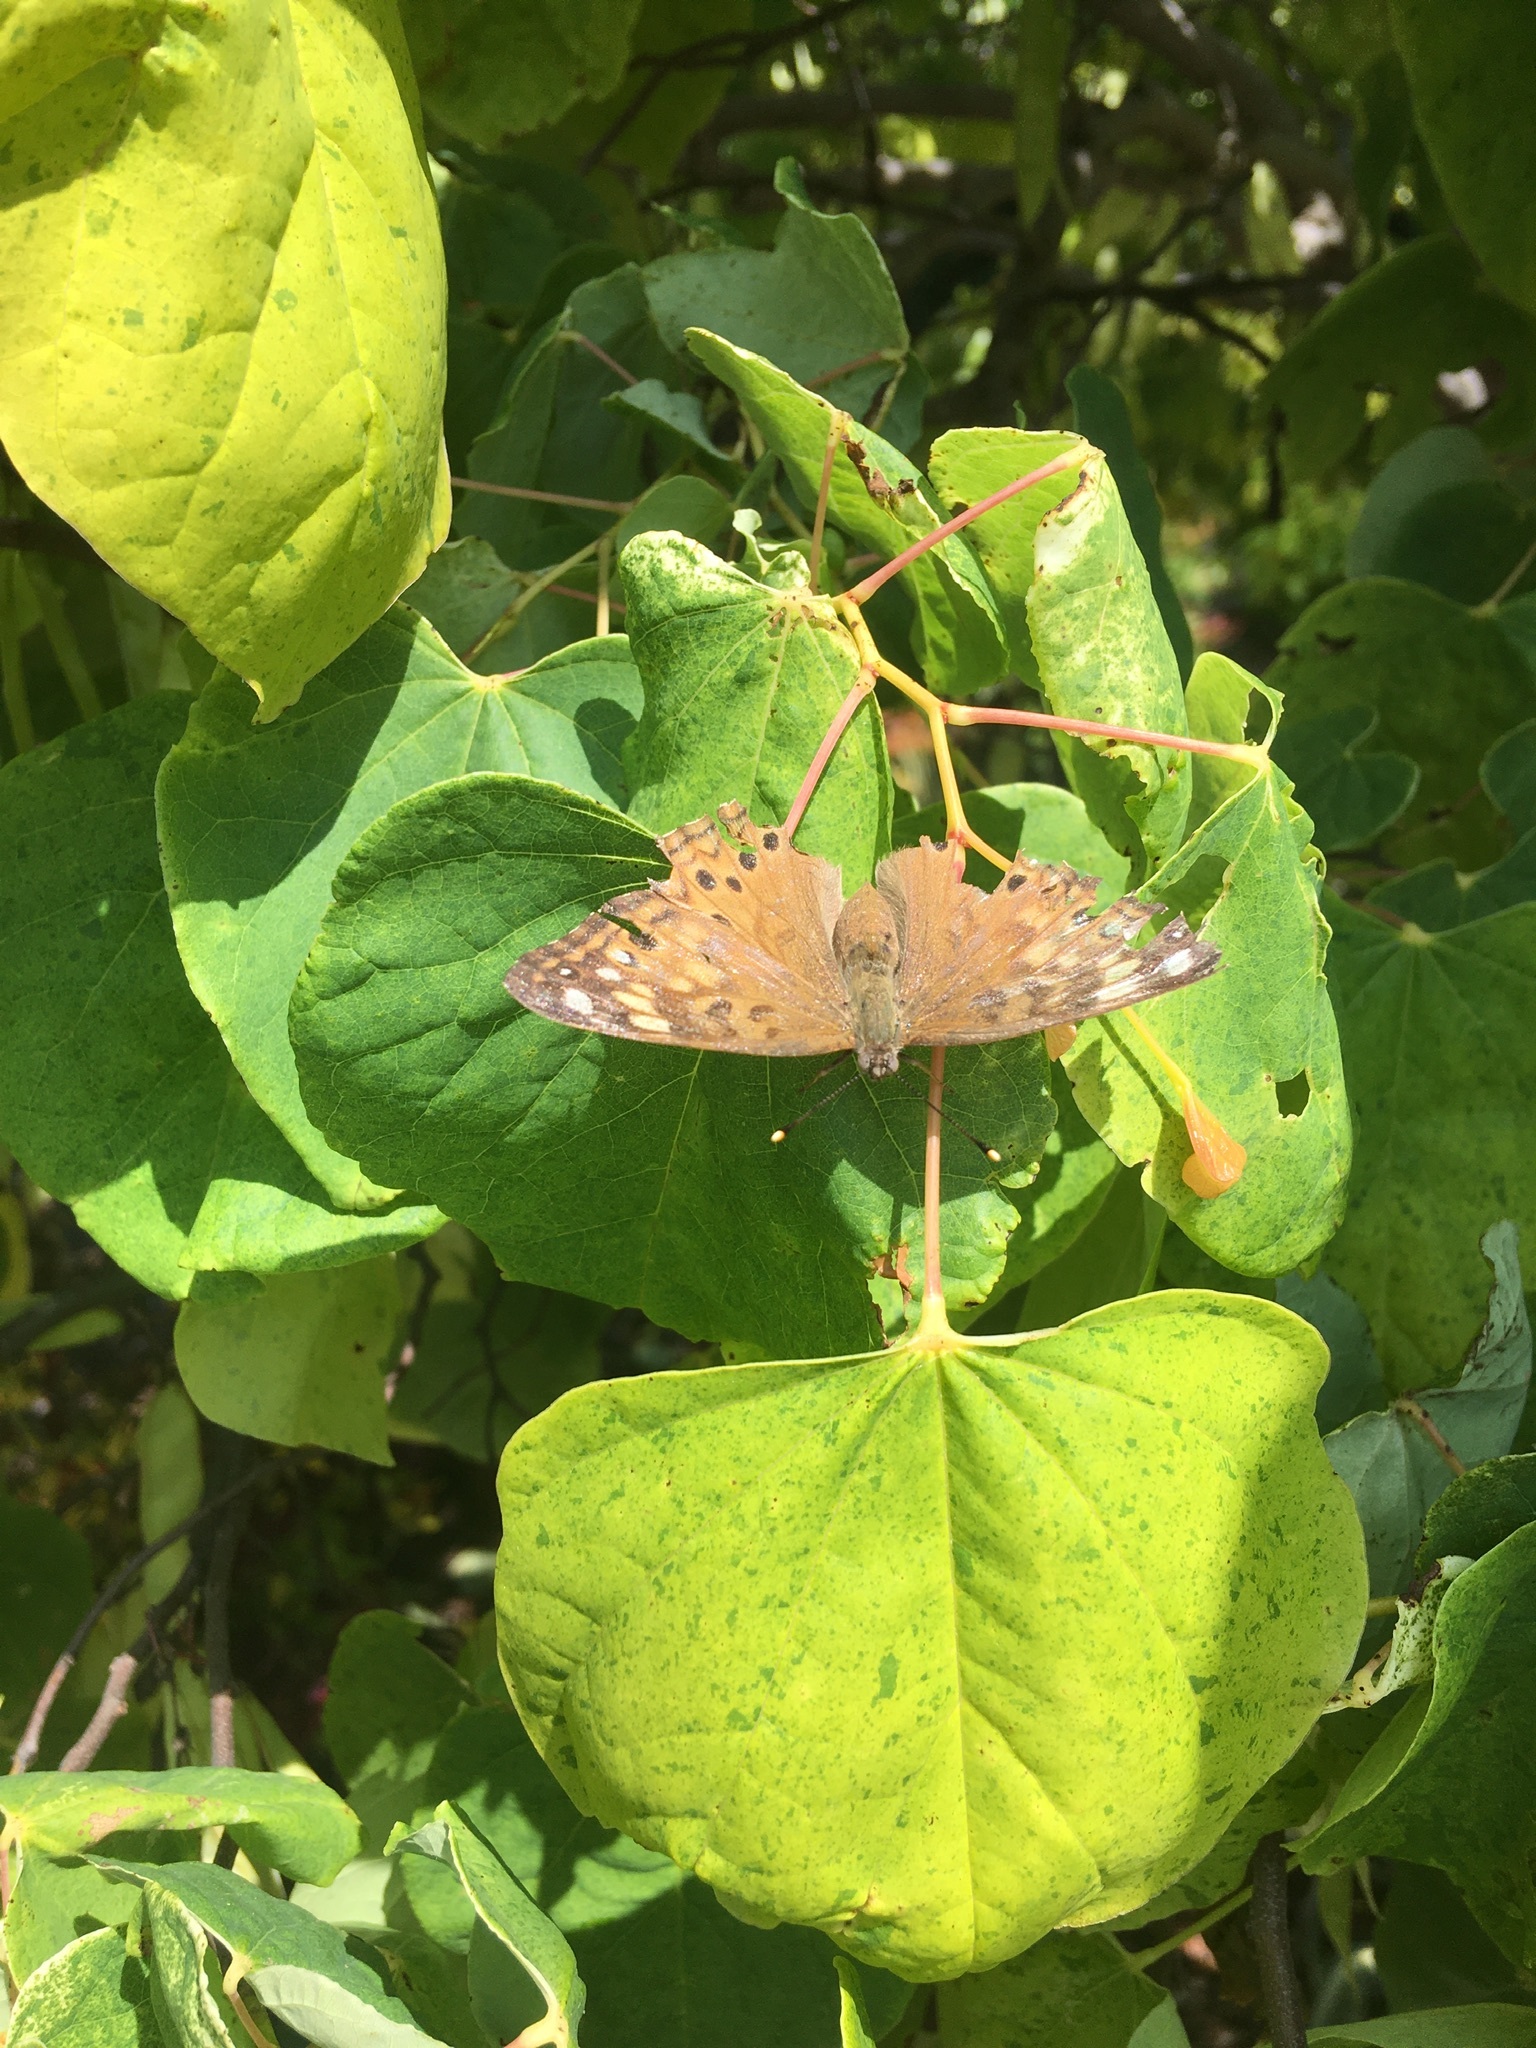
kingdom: Animalia
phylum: Arthropoda
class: Insecta
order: Lepidoptera
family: Nymphalidae
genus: Asterocampa
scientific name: Asterocampa celtis
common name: Hackberry emperor
